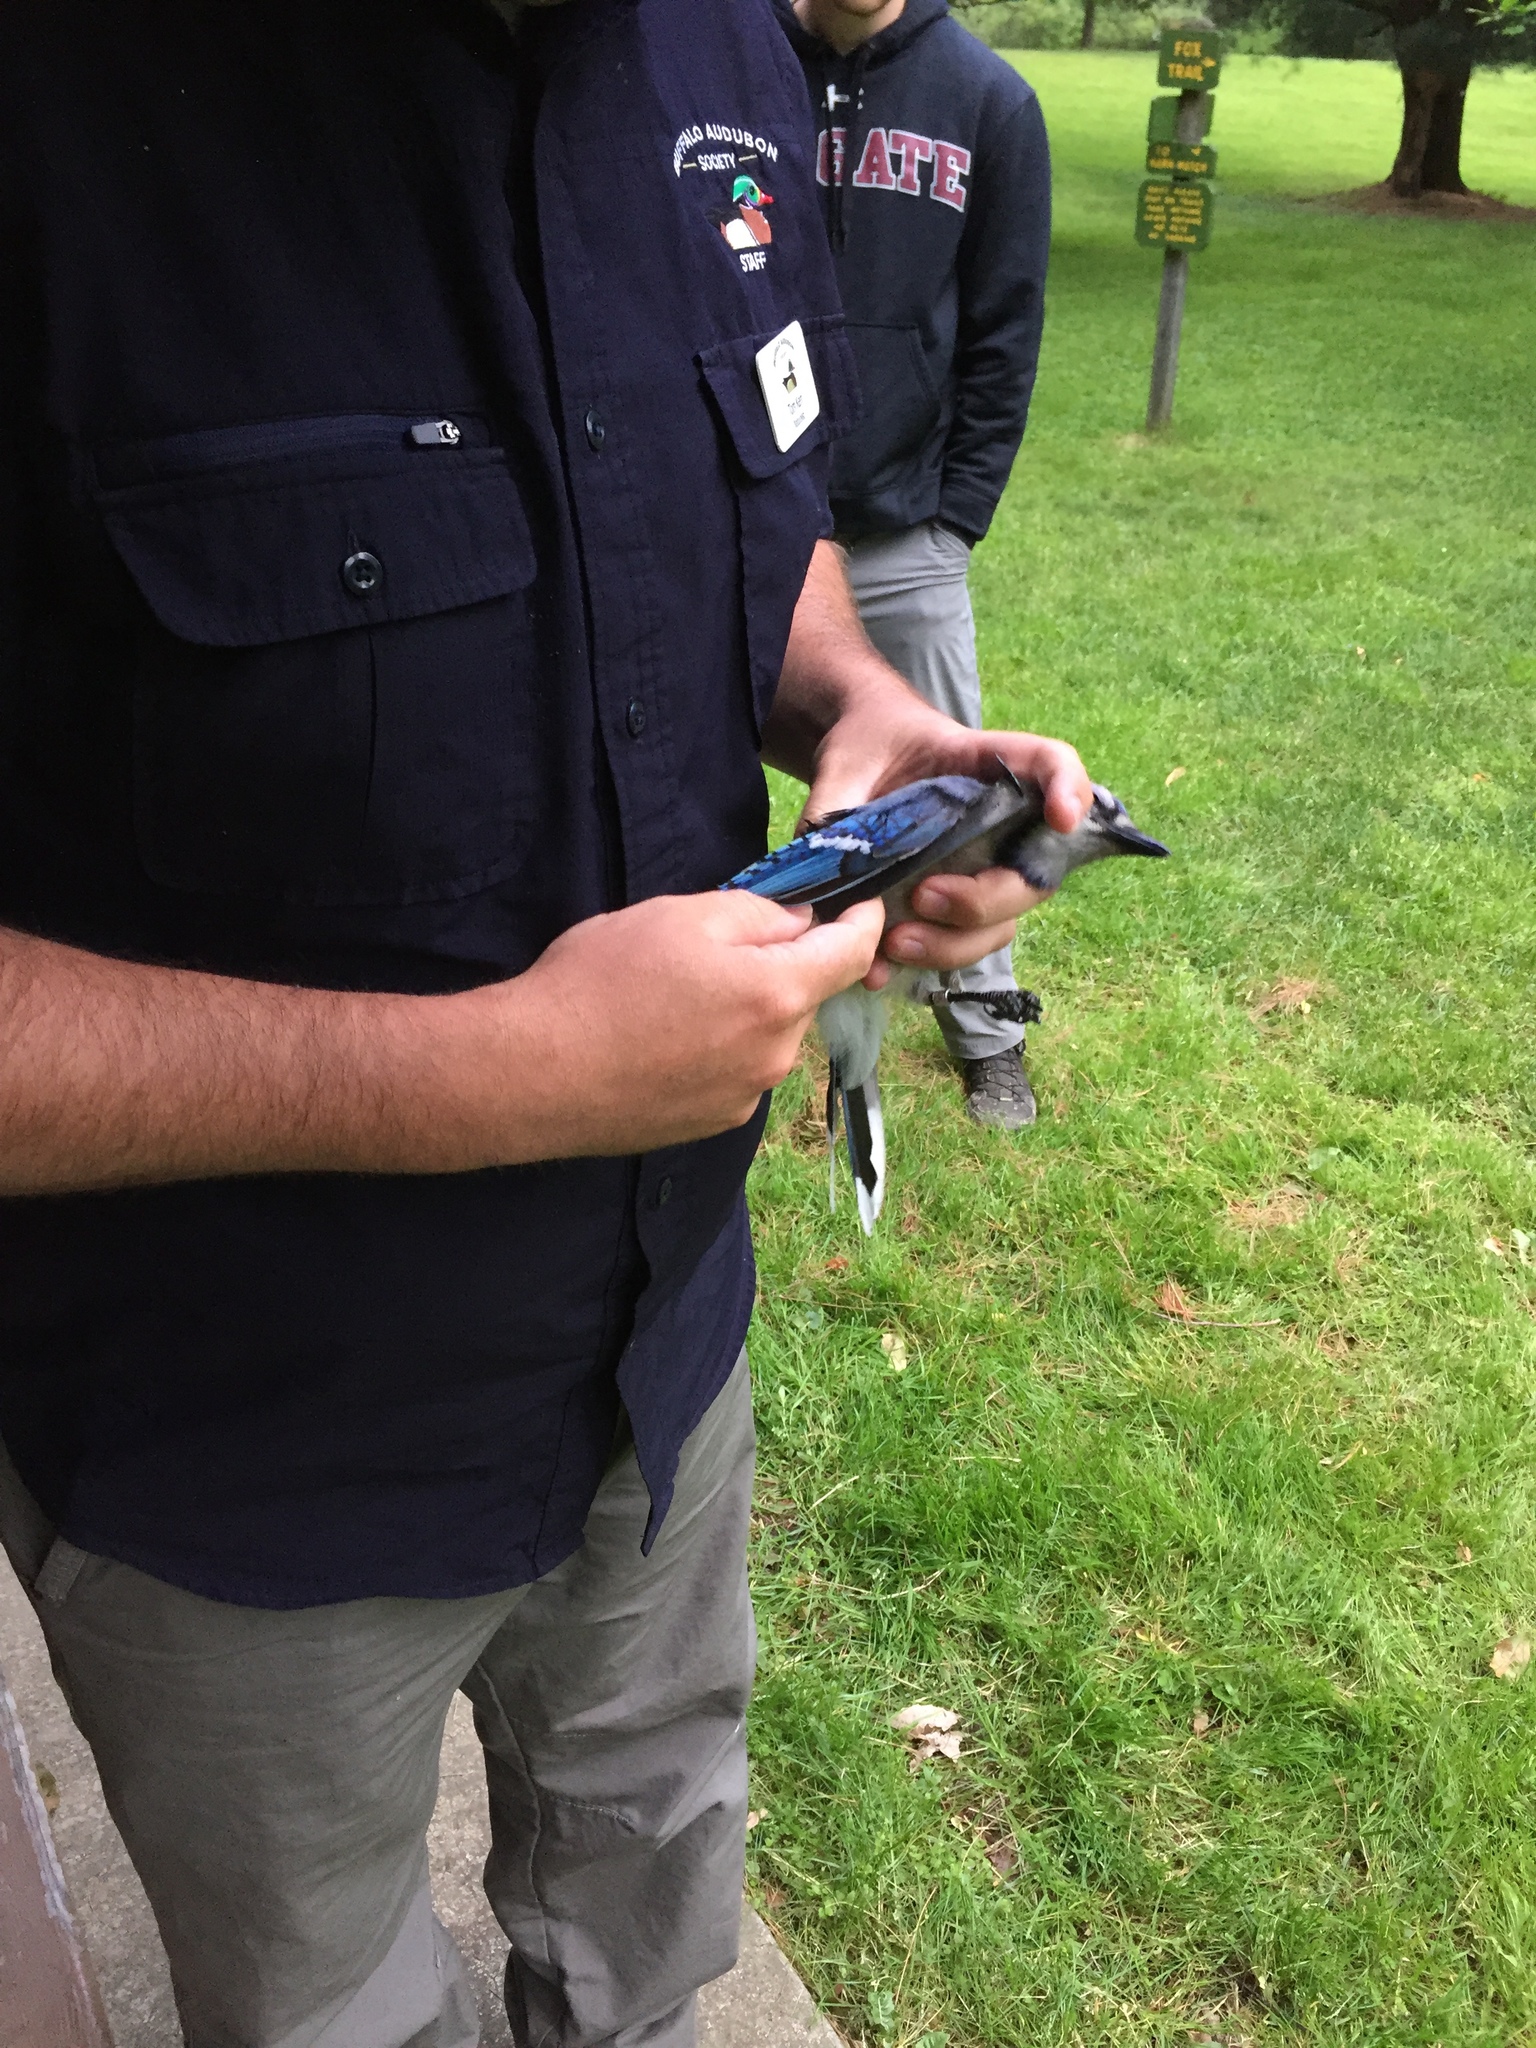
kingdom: Animalia
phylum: Chordata
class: Aves
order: Passeriformes
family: Corvidae
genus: Cyanocitta
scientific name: Cyanocitta cristata
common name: Blue jay
